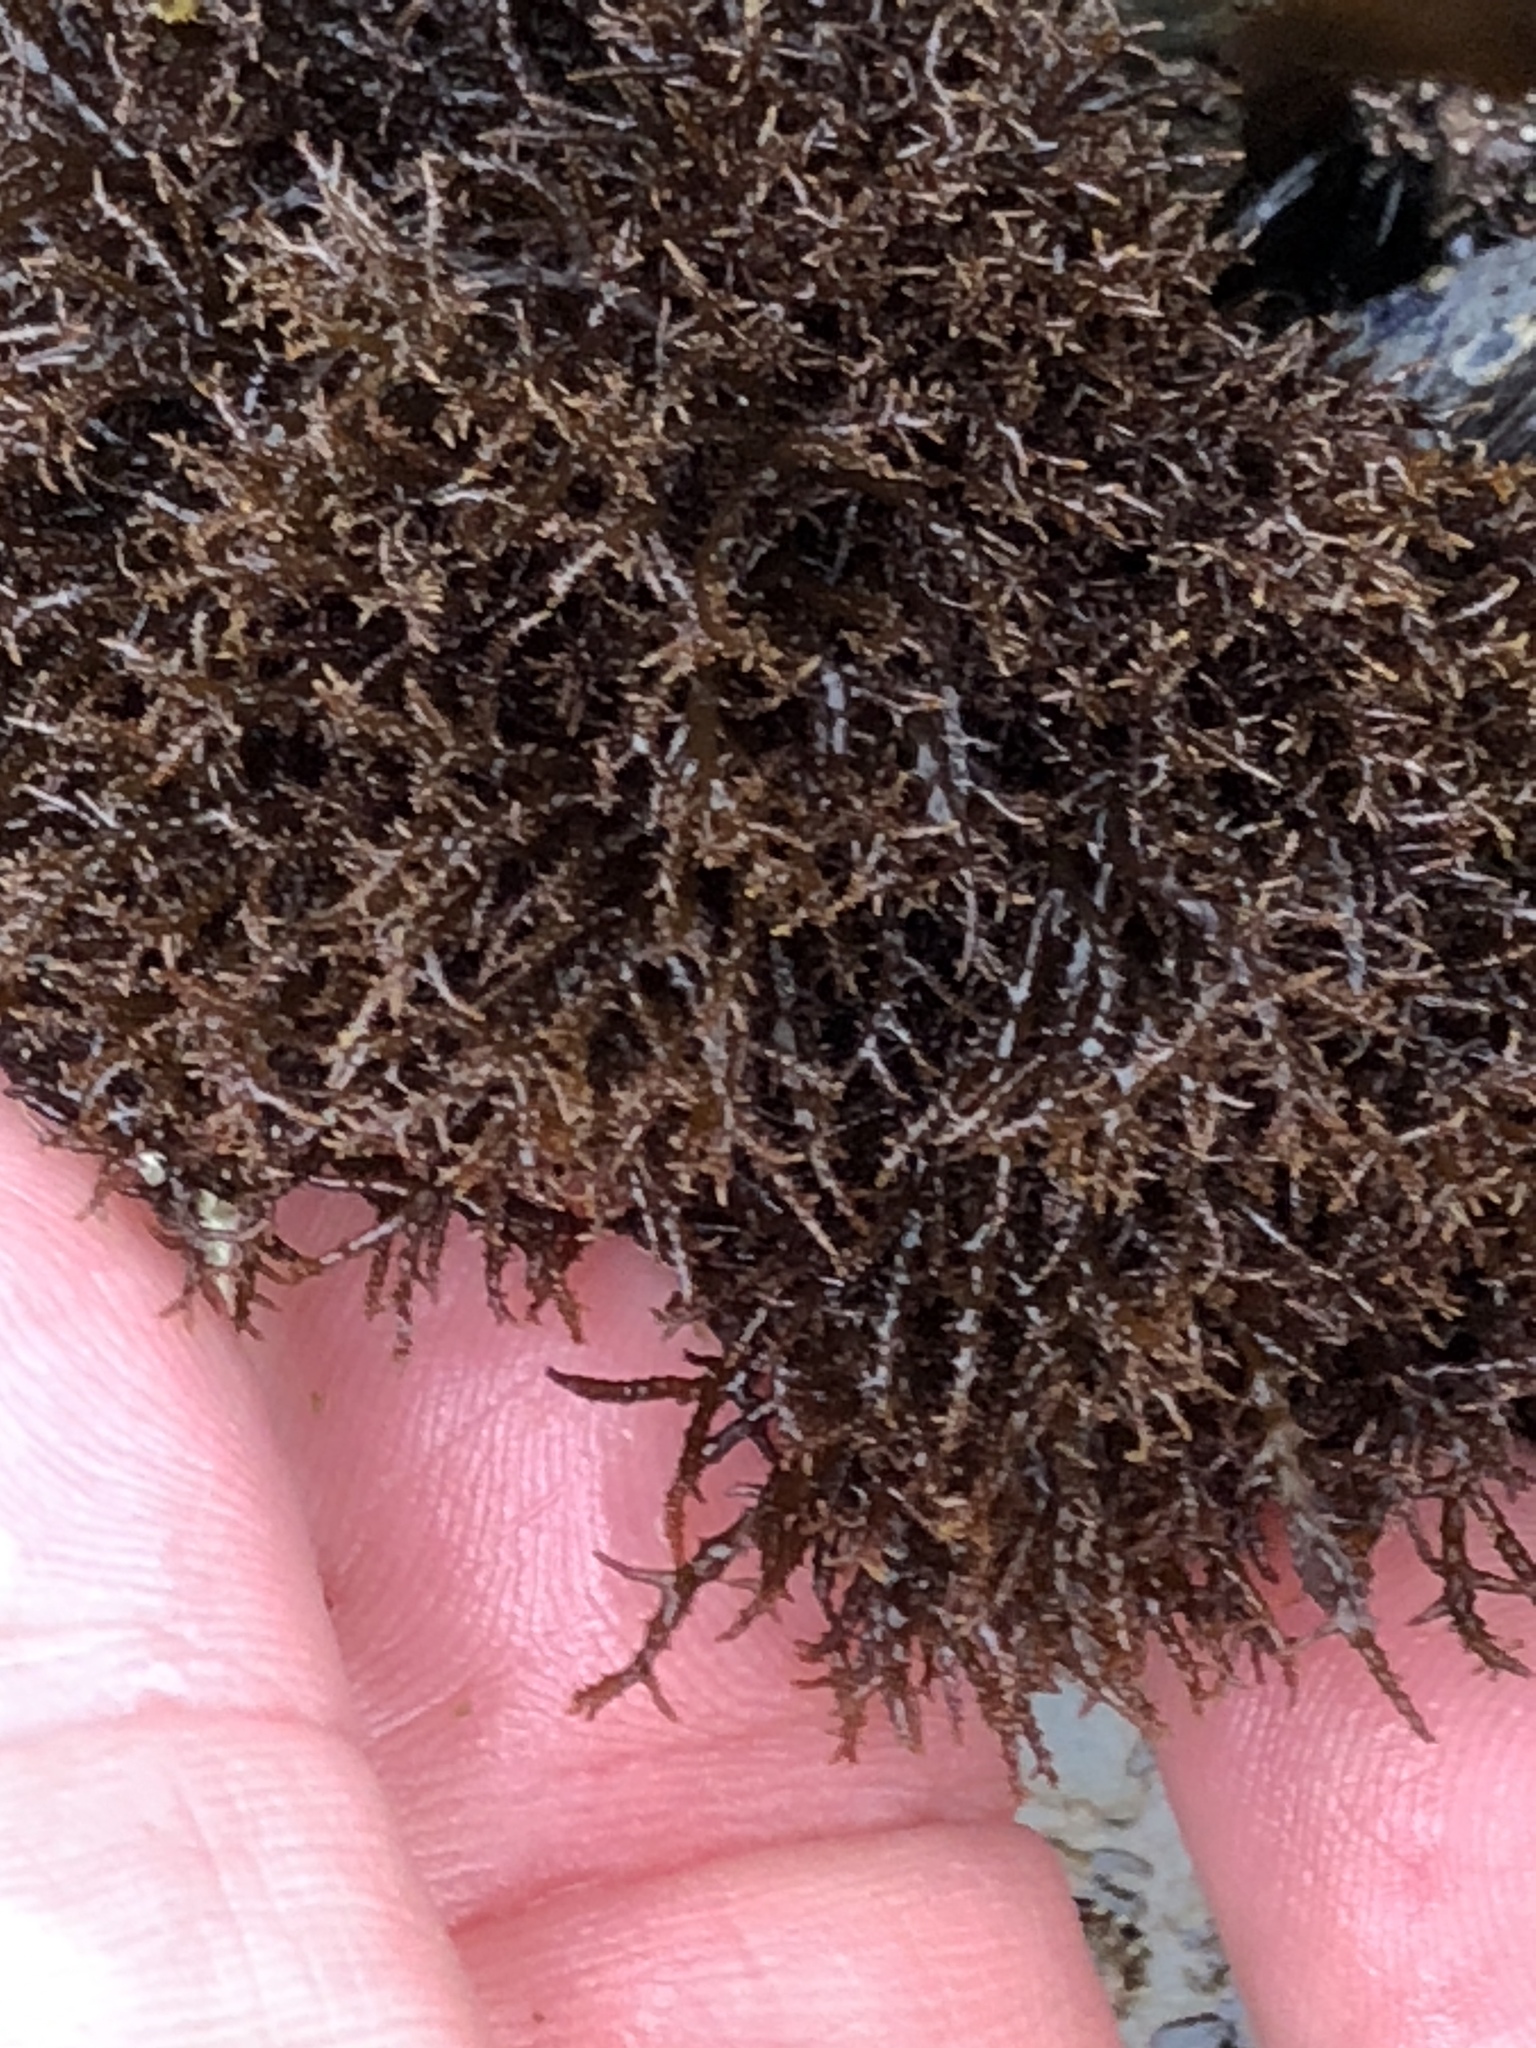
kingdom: Plantae
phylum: Rhodophyta
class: Florideophyceae
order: Gigartinales
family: Endocladiaceae
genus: Endocladia
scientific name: Endocladia muricata
